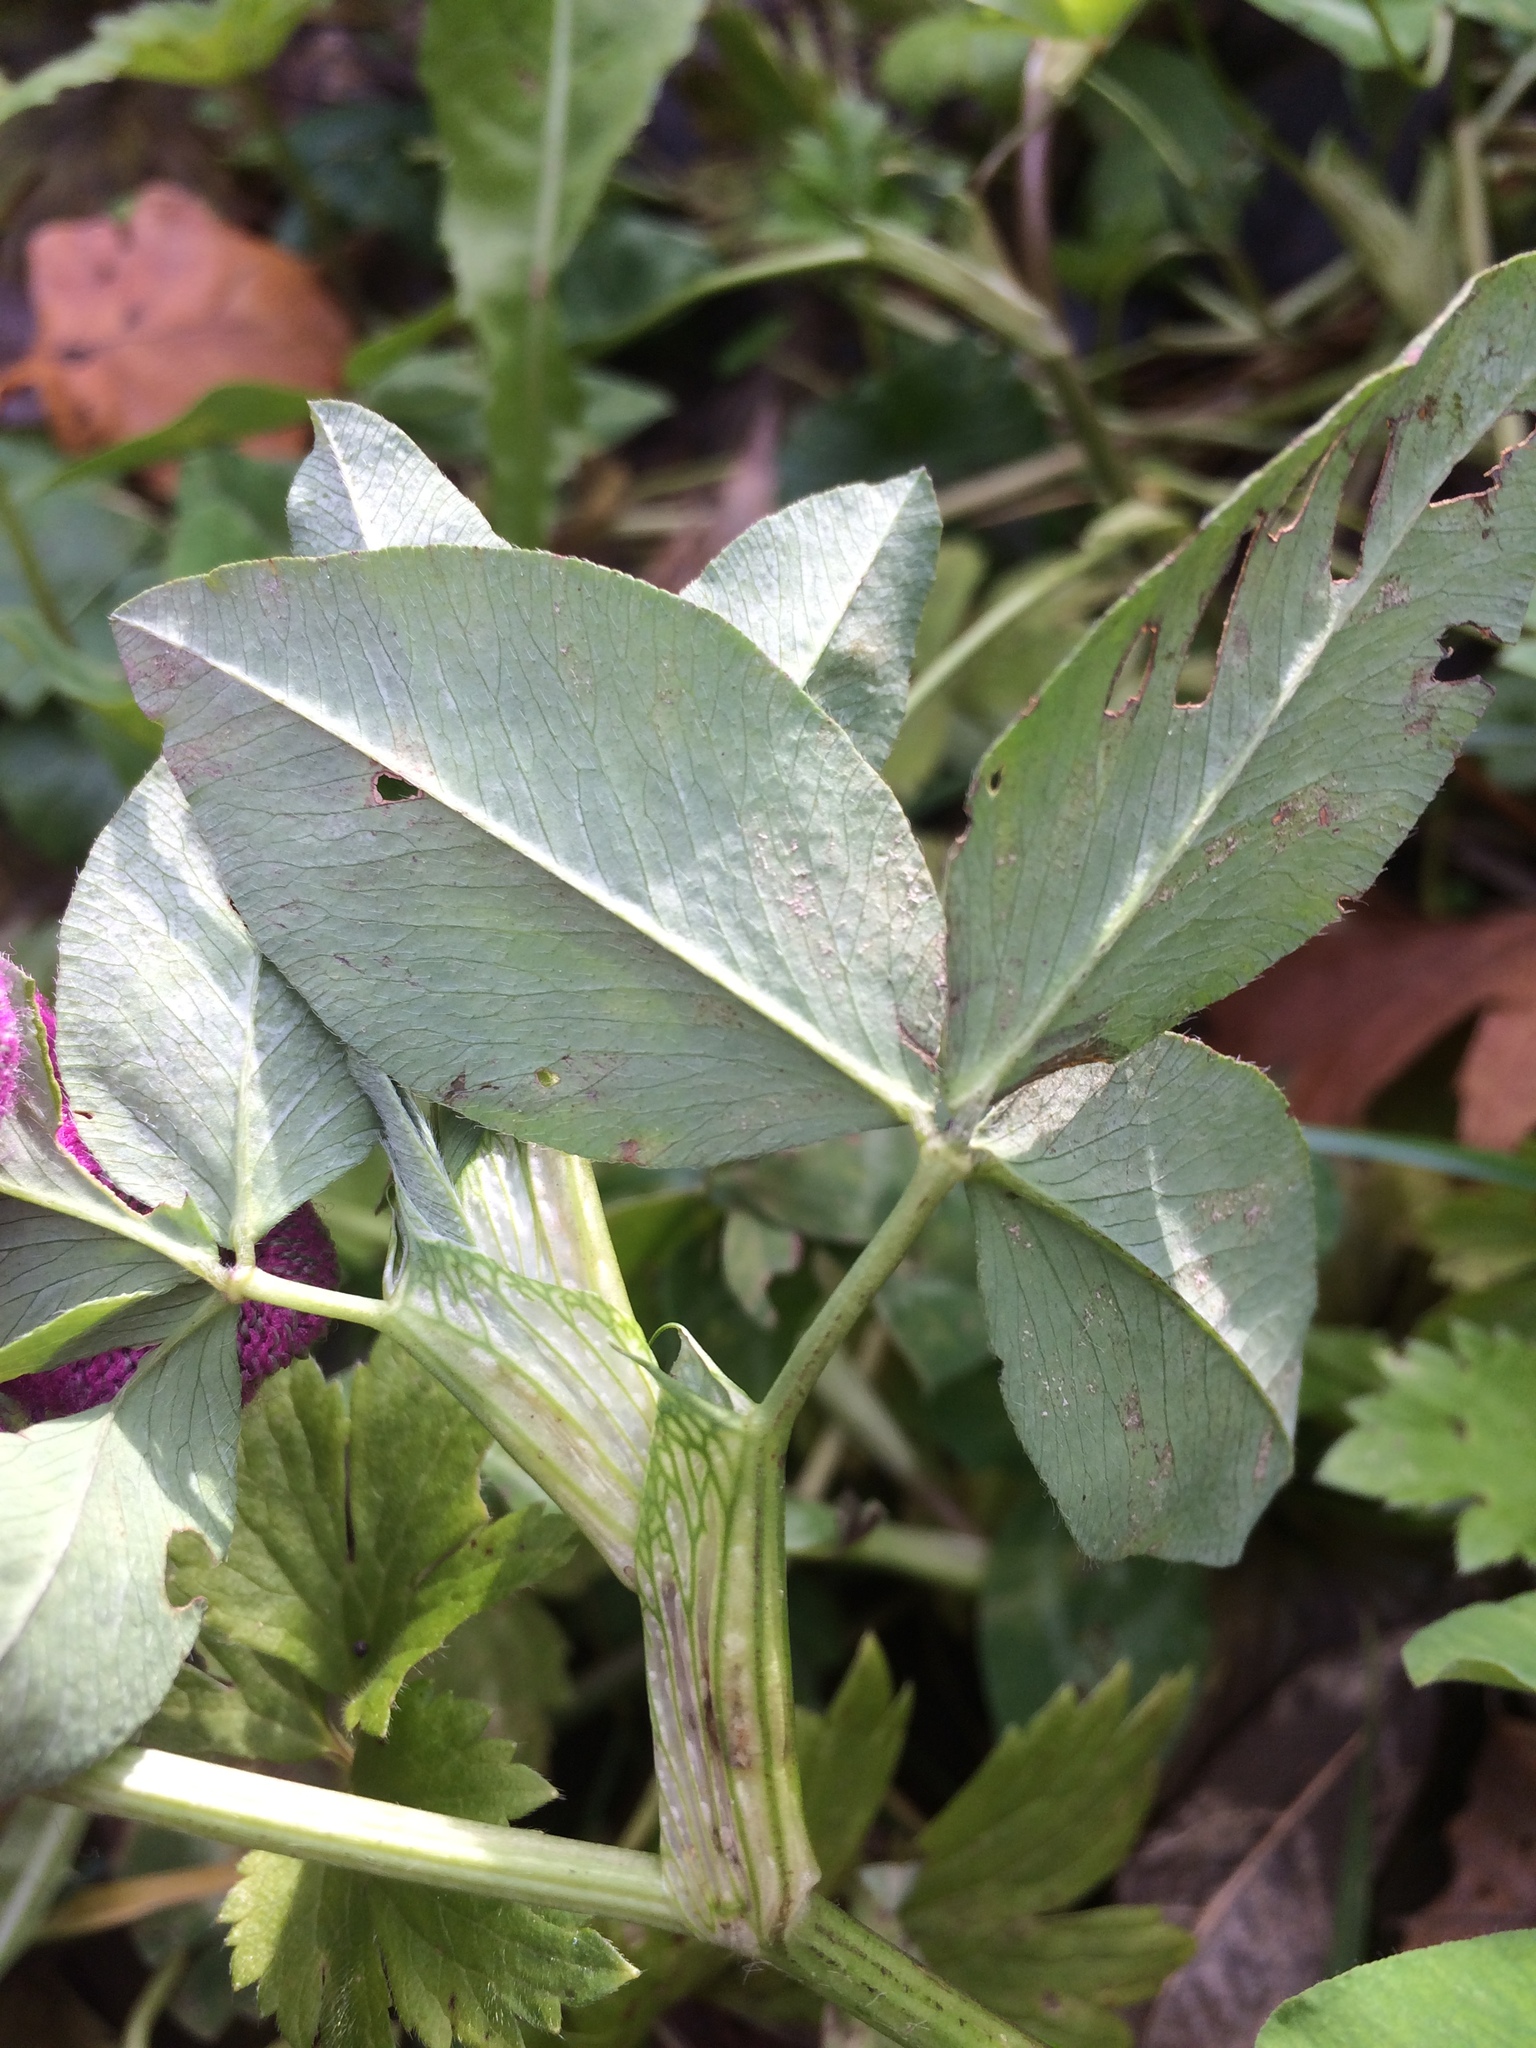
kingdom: Plantae
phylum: Tracheophyta
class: Magnoliopsida
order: Fabales
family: Fabaceae
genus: Trifolium
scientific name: Trifolium pratense
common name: Red clover
